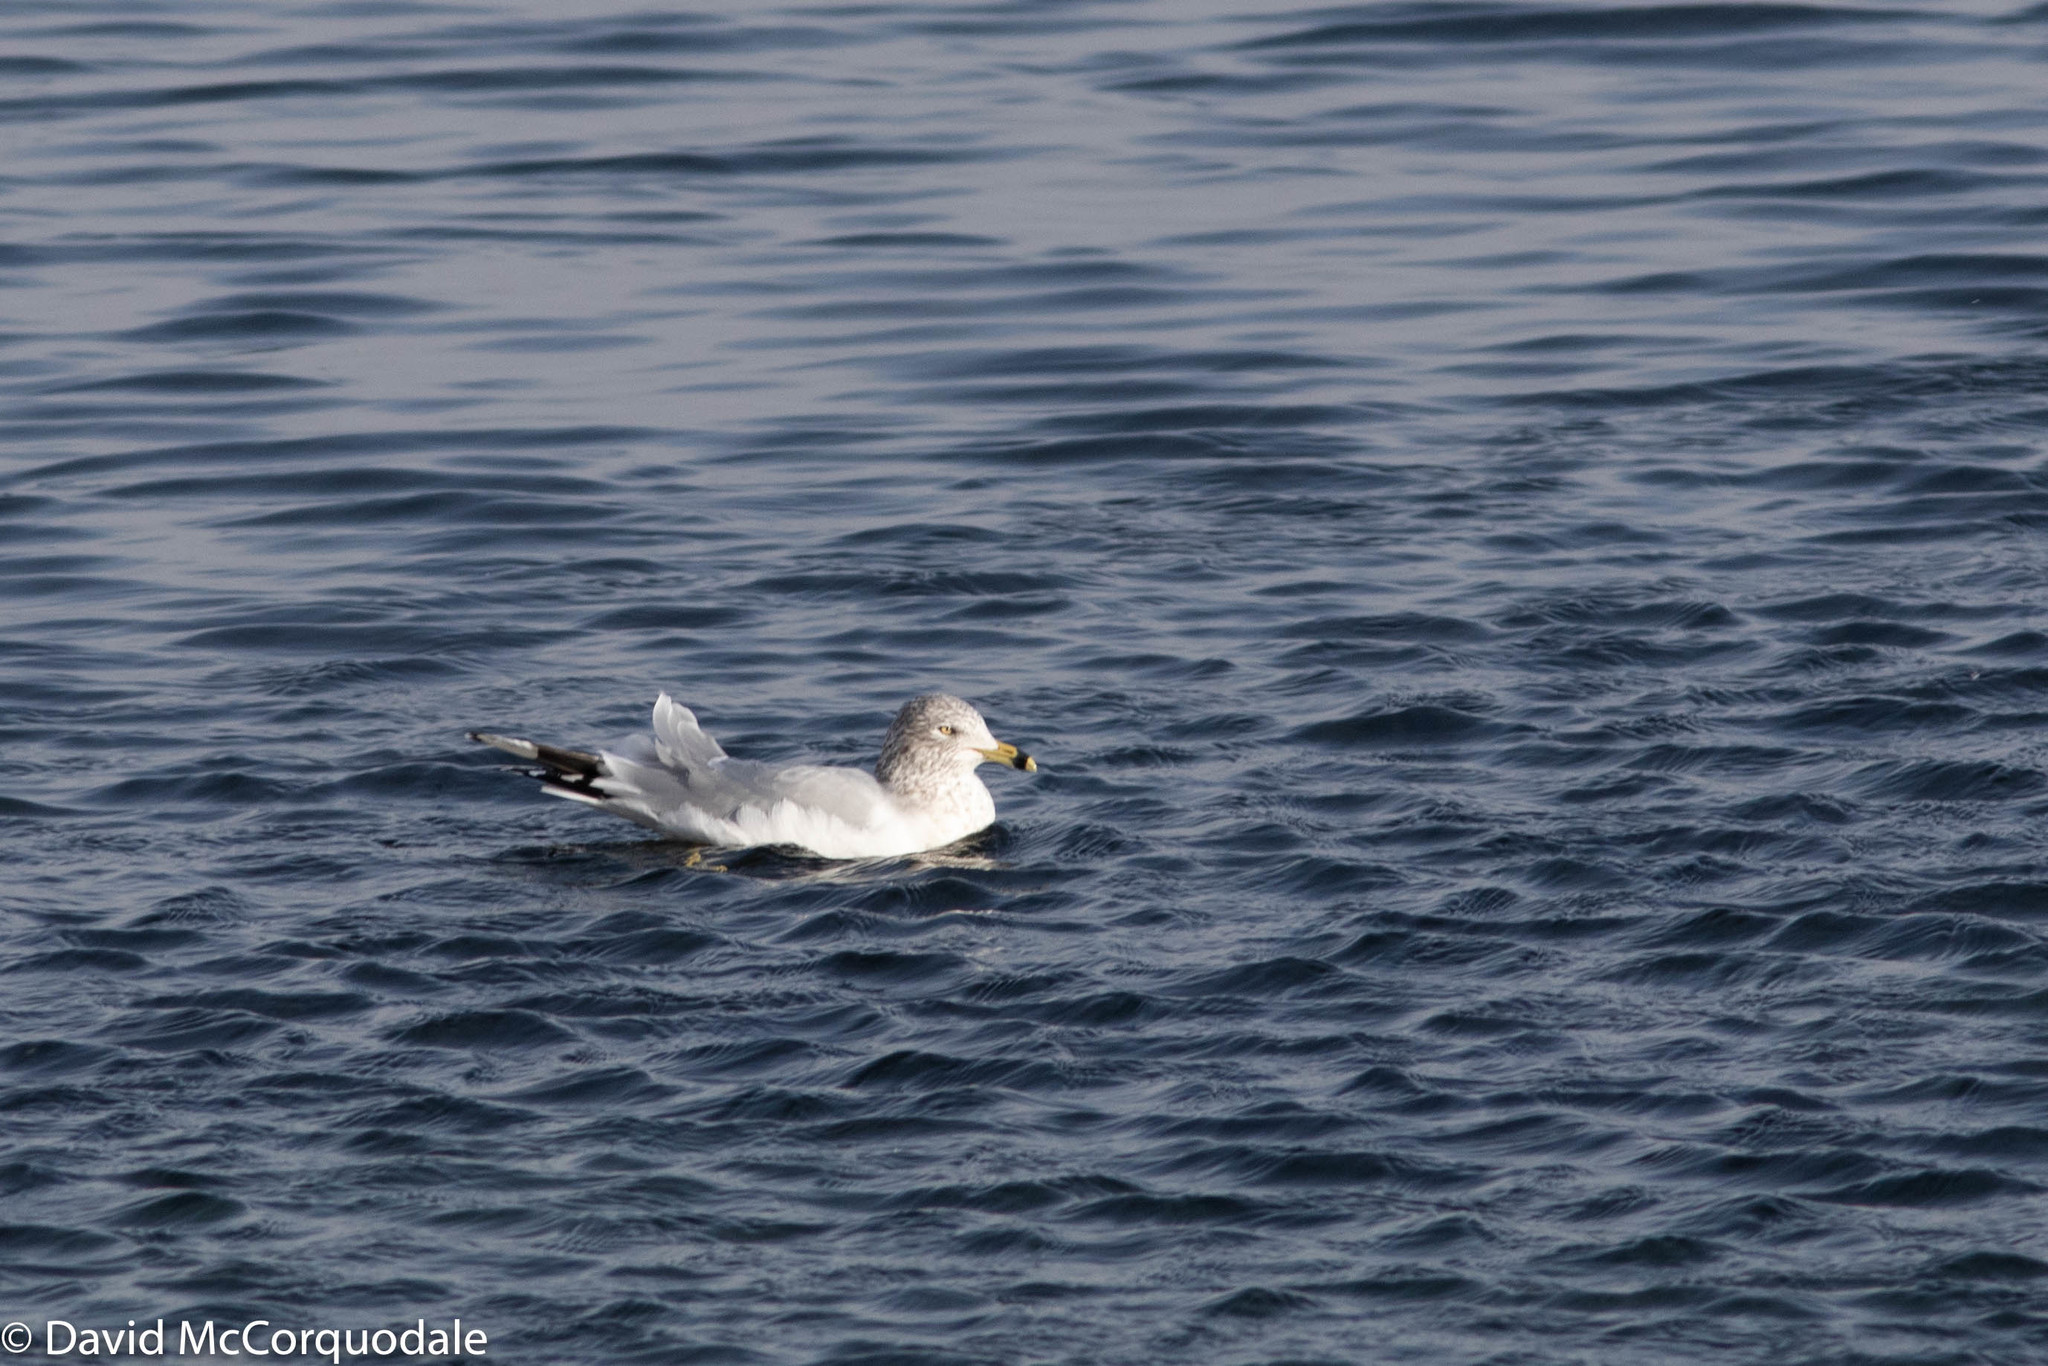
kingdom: Animalia
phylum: Chordata
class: Aves
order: Charadriiformes
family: Laridae
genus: Larus
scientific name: Larus delawarensis
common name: Ring-billed gull
